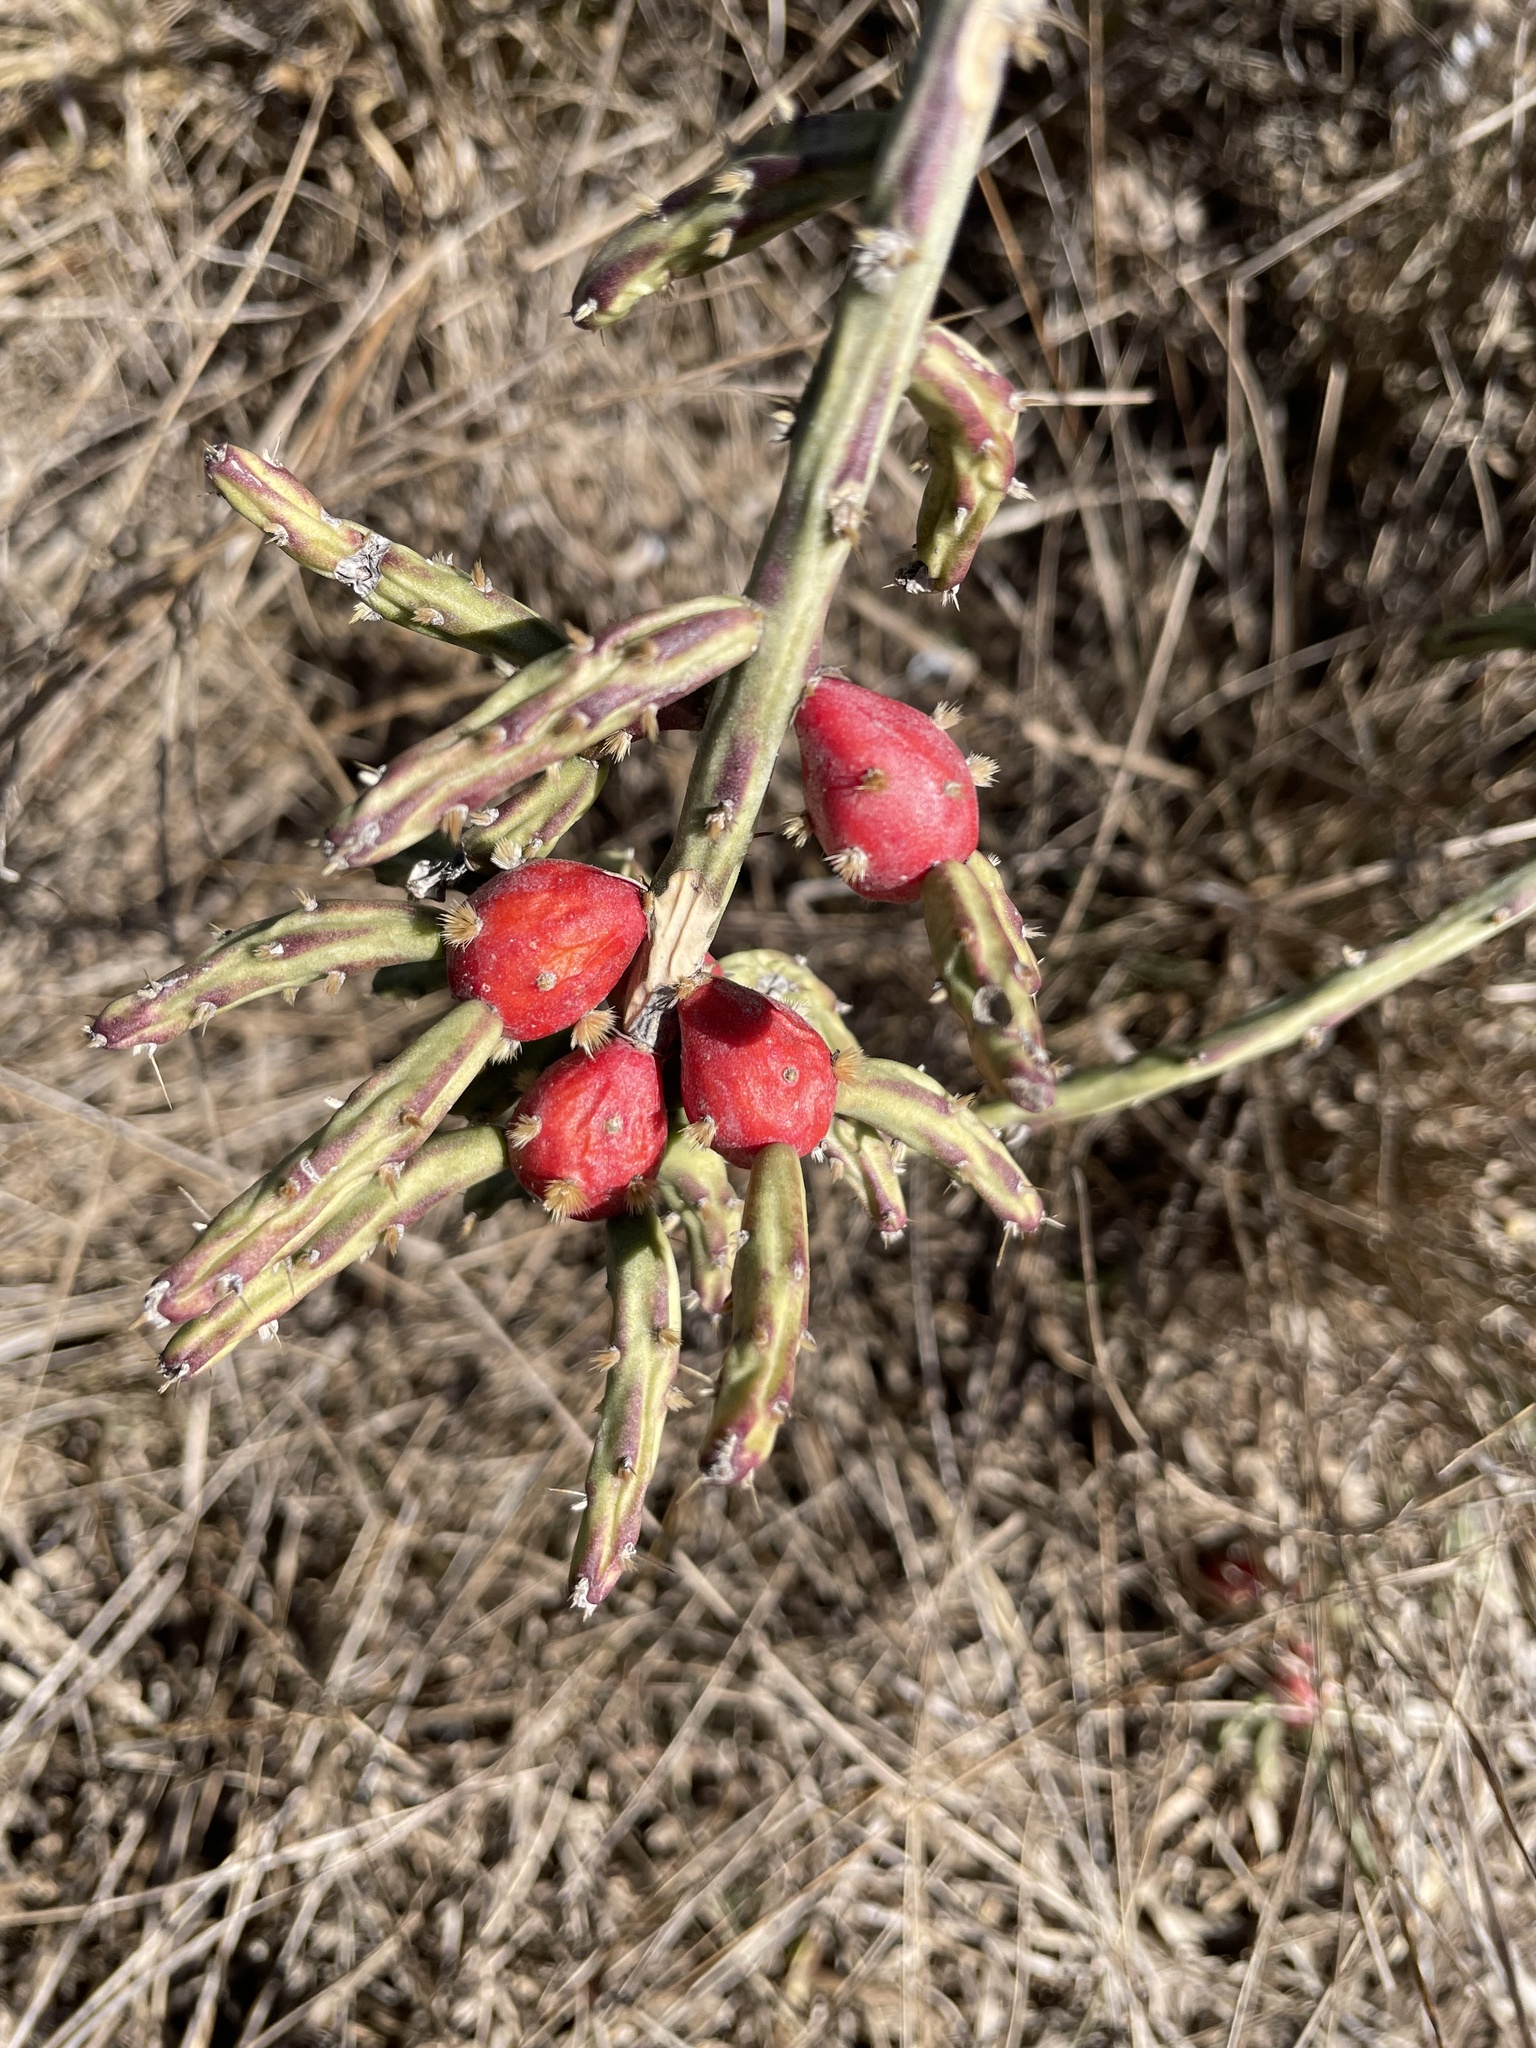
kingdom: Plantae
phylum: Tracheophyta
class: Magnoliopsida
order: Caryophyllales
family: Cactaceae
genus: Cylindropuntia
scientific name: Cylindropuntia leptocaulis
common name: Christmas cactus
